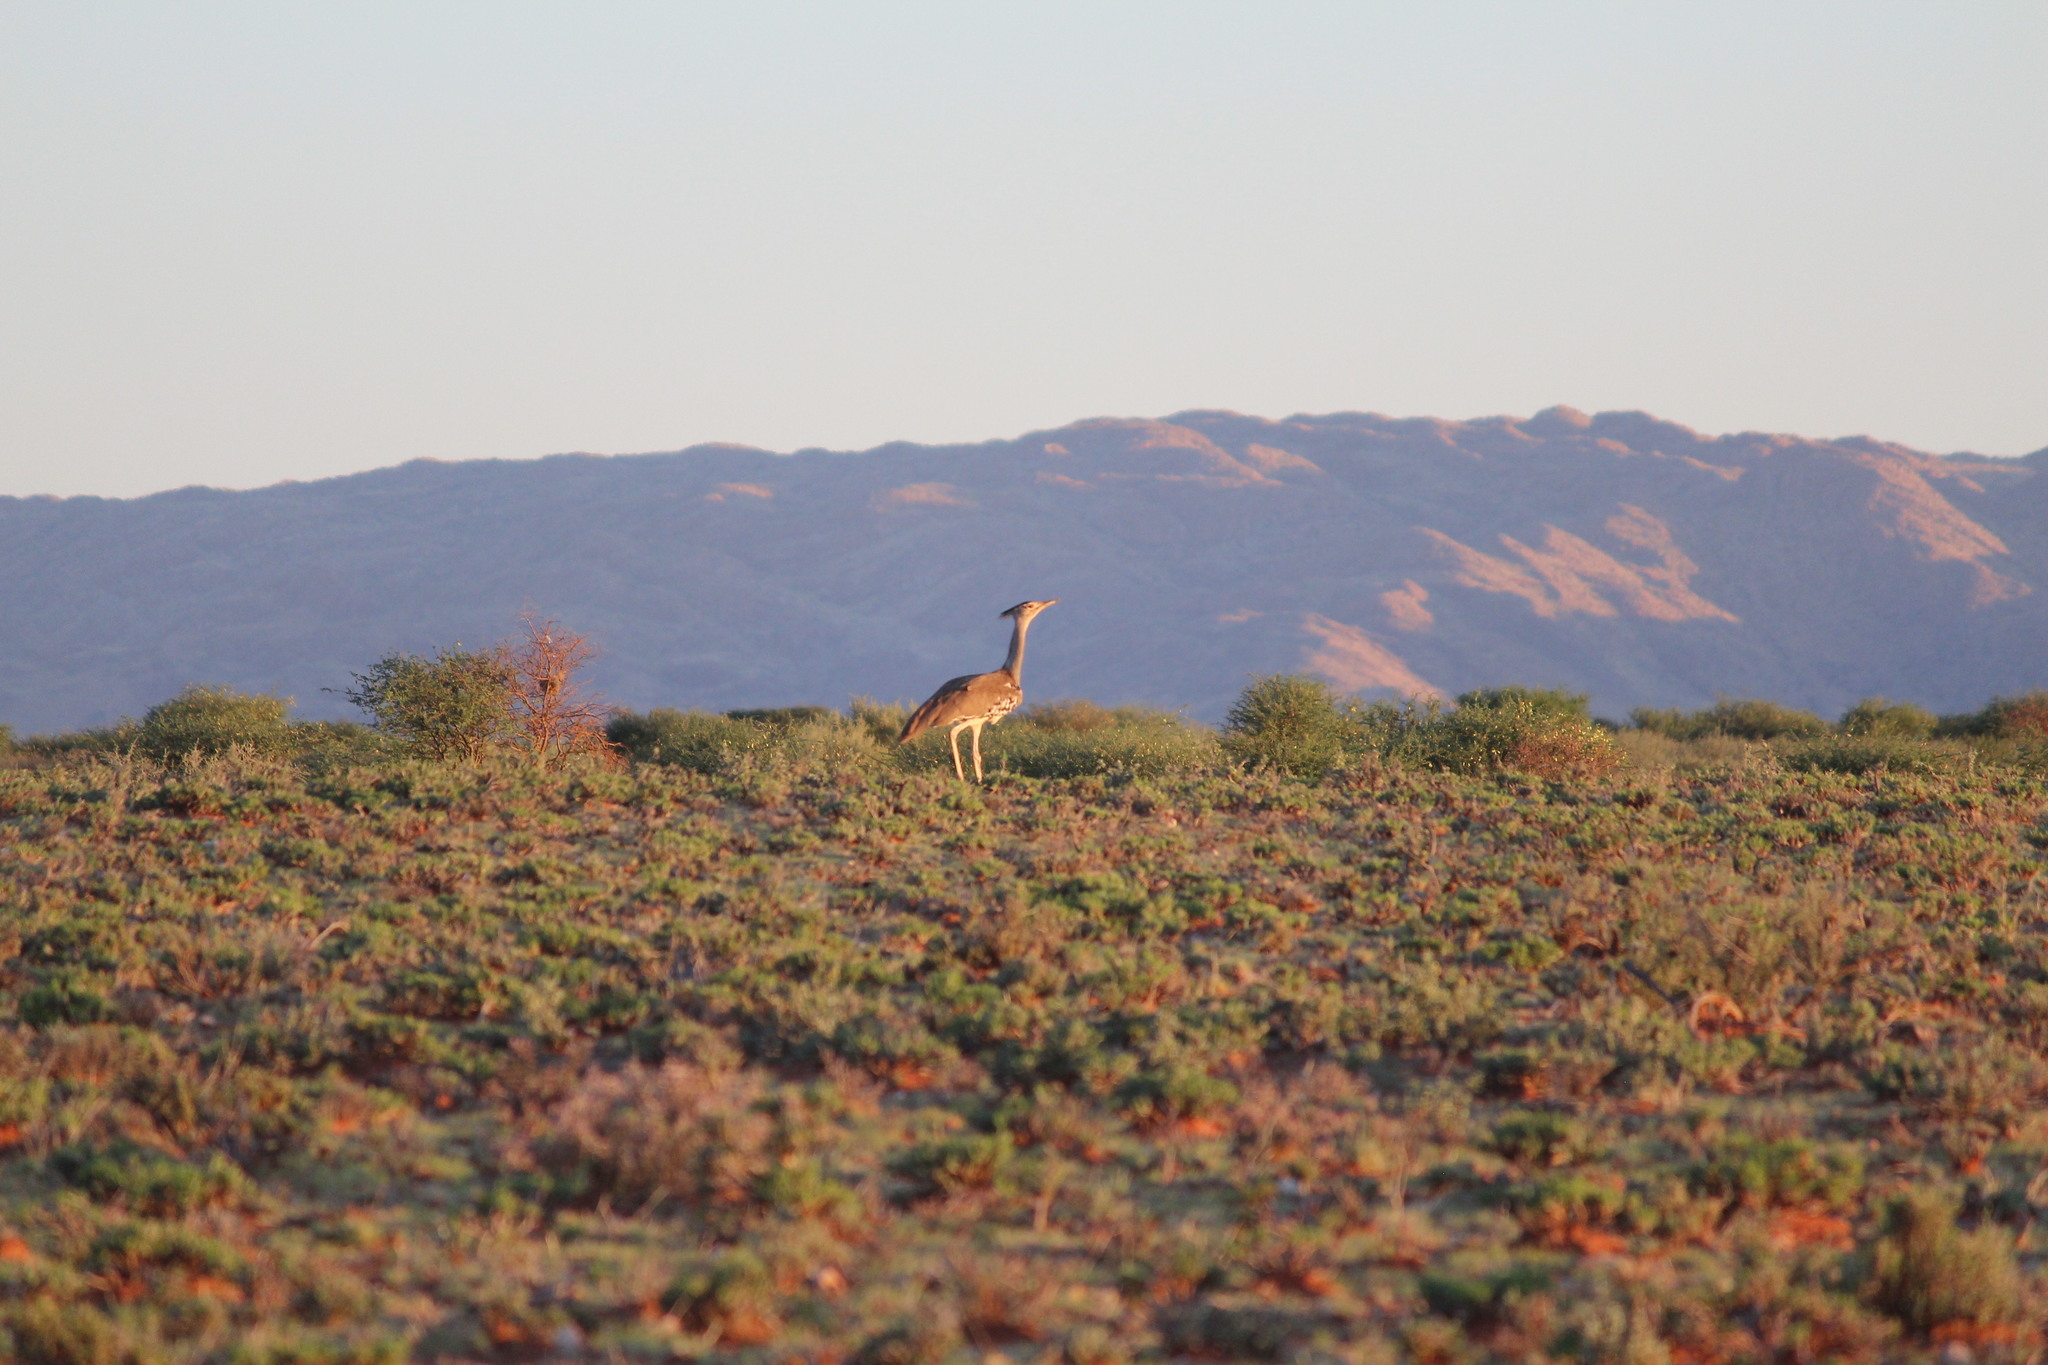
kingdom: Animalia
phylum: Chordata
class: Aves
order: Otidiformes
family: Otididae
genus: Ardeotis
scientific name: Ardeotis kori
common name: Kori bustard
